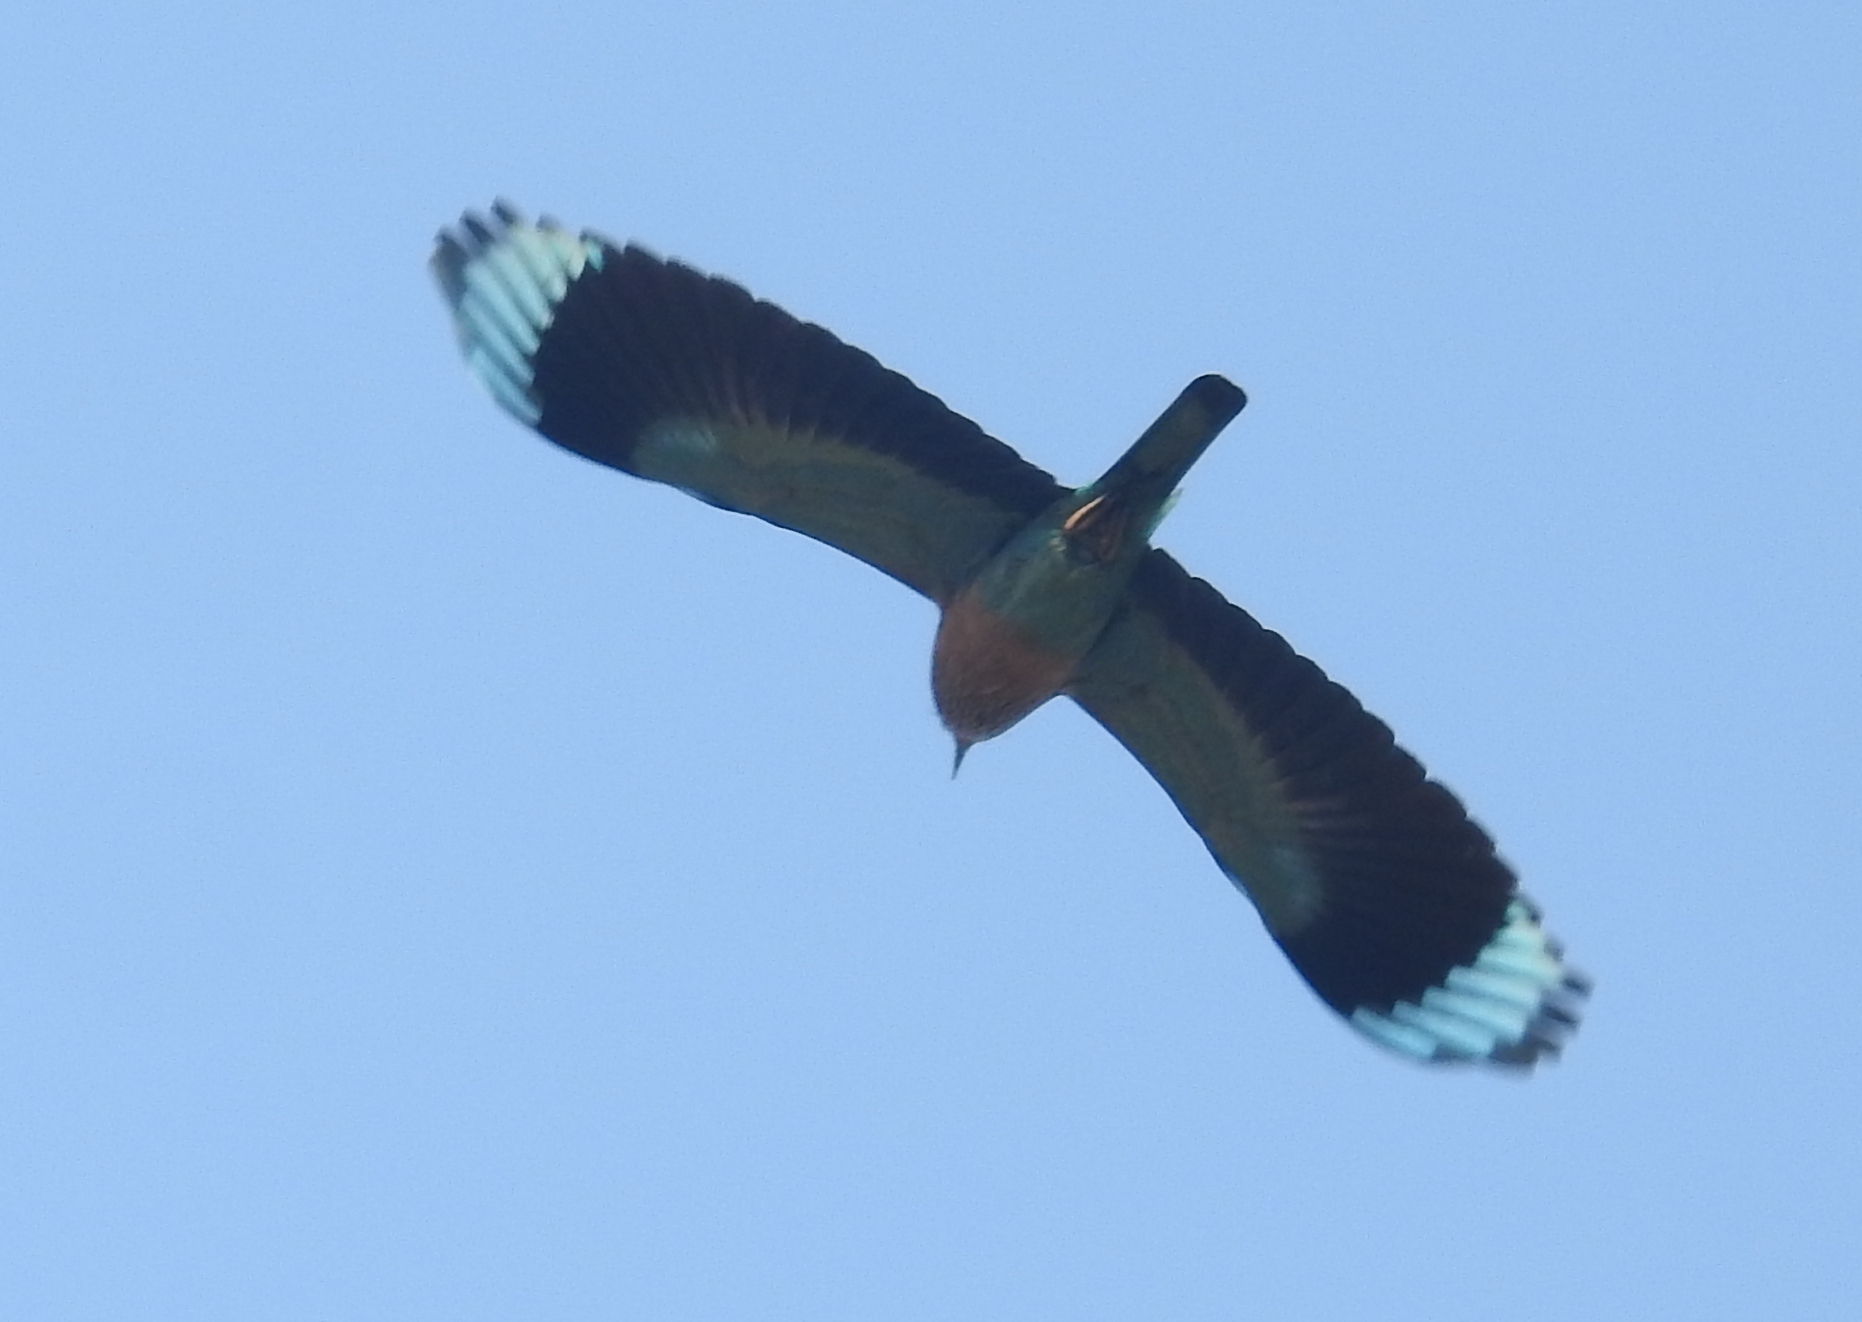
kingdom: Animalia
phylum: Chordata
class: Aves
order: Coraciiformes
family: Coraciidae
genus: Coracias
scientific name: Coracias benghalensis
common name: Indian roller
